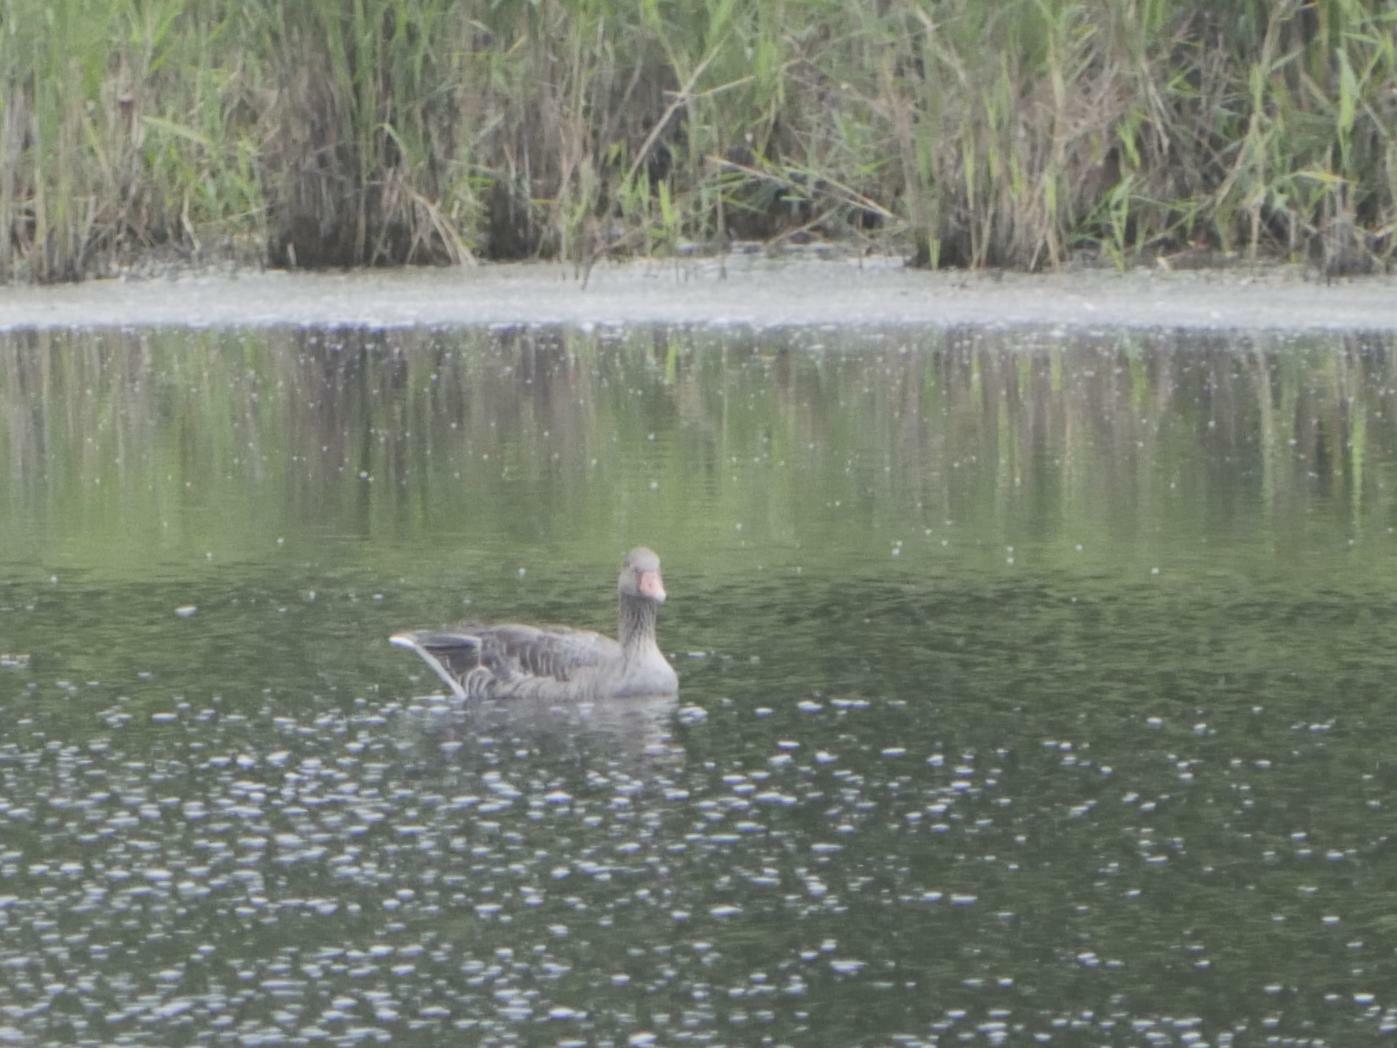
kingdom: Animalia
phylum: Chordata
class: Aves
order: Anseriformes
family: Anatidae
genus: Anser
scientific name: Anser anser
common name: Greylag goose
